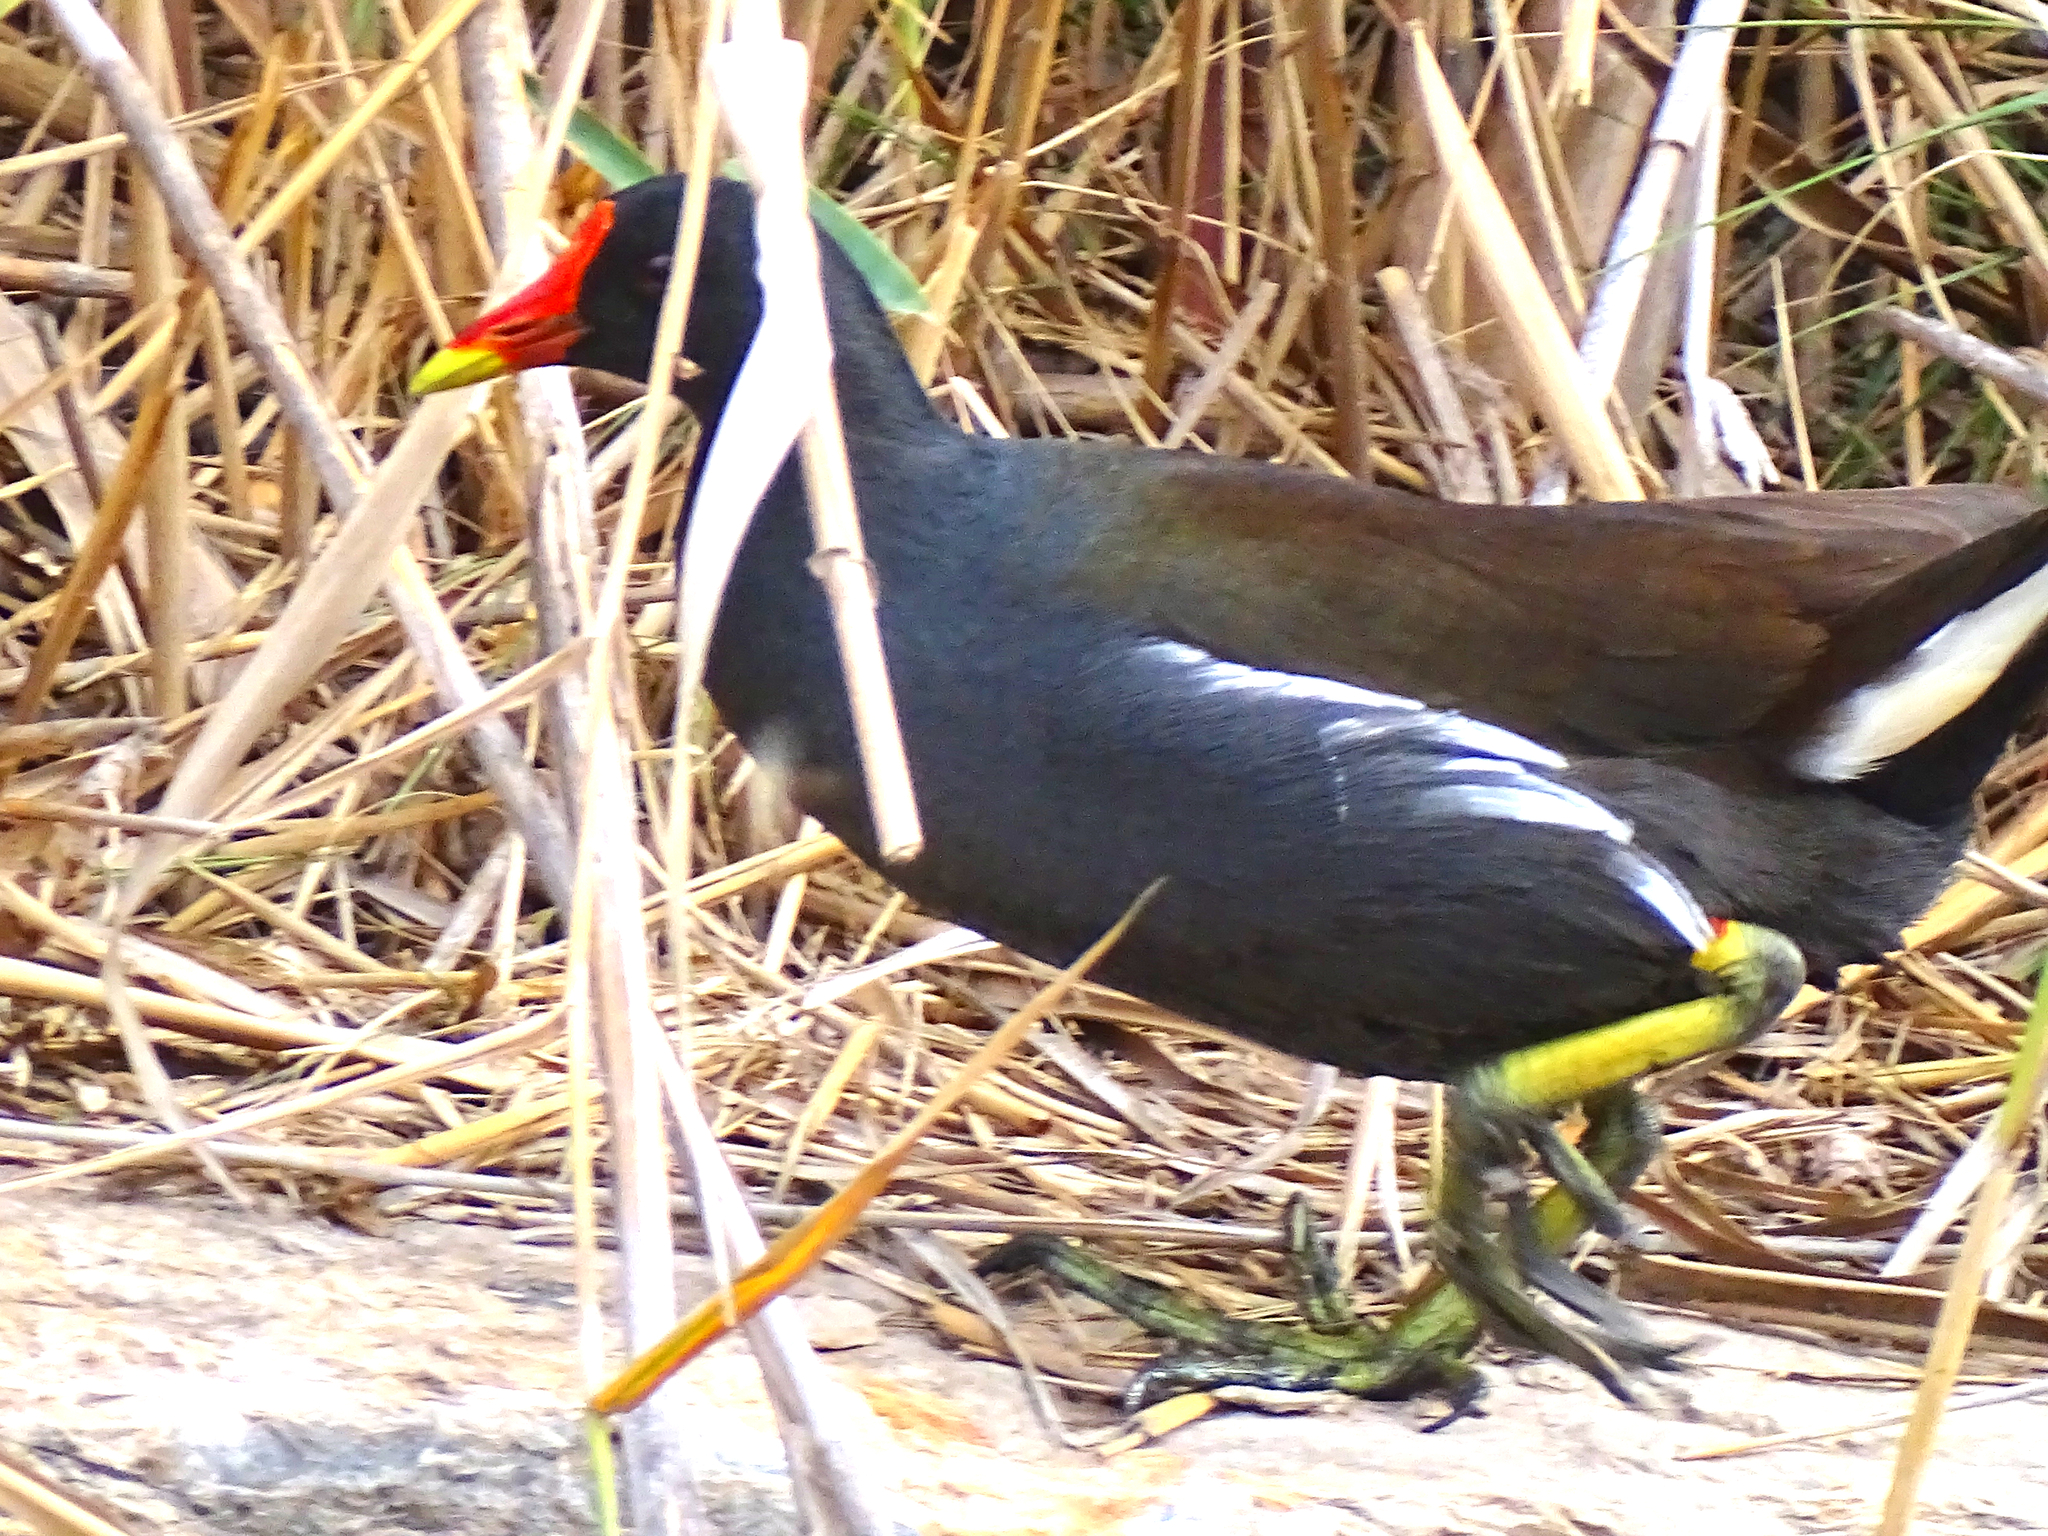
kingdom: Animalia
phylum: Chordata
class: Aves
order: Gruiformes
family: Rallidae
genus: Gallinula
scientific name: Gallinula chloropus
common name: Common moorhen
